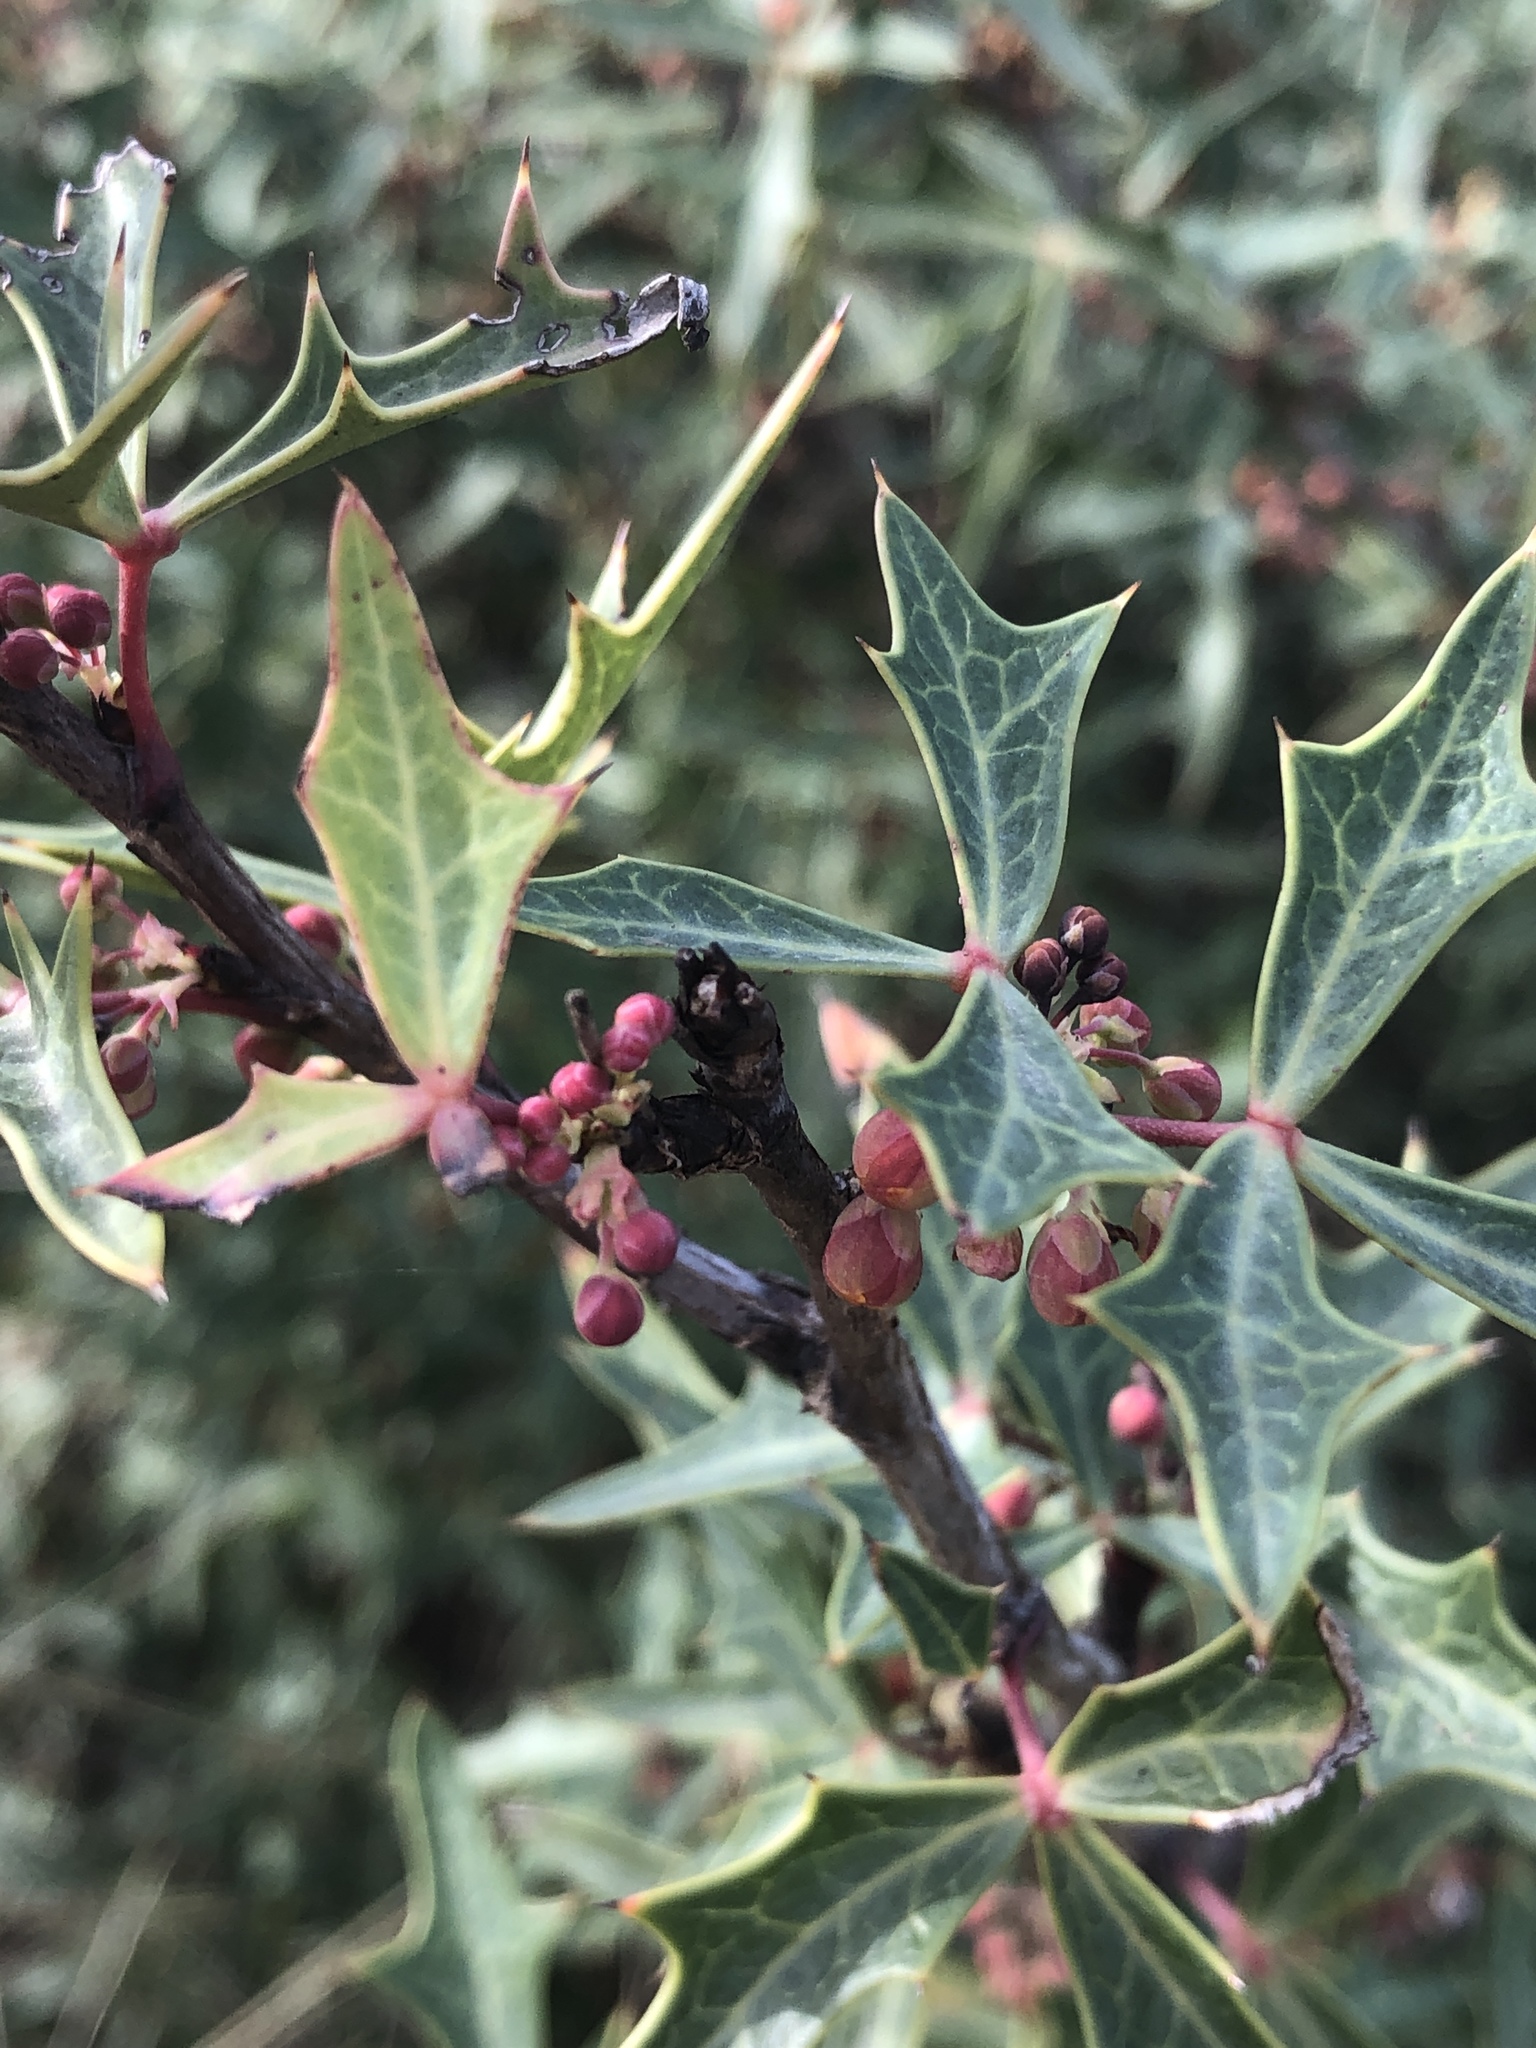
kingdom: Plantae
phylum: Tracheophyta
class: Magnoliopsida
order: Ranunculales
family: Berberidaceae
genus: Alloberberis
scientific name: Alloberberis trifoliolata
